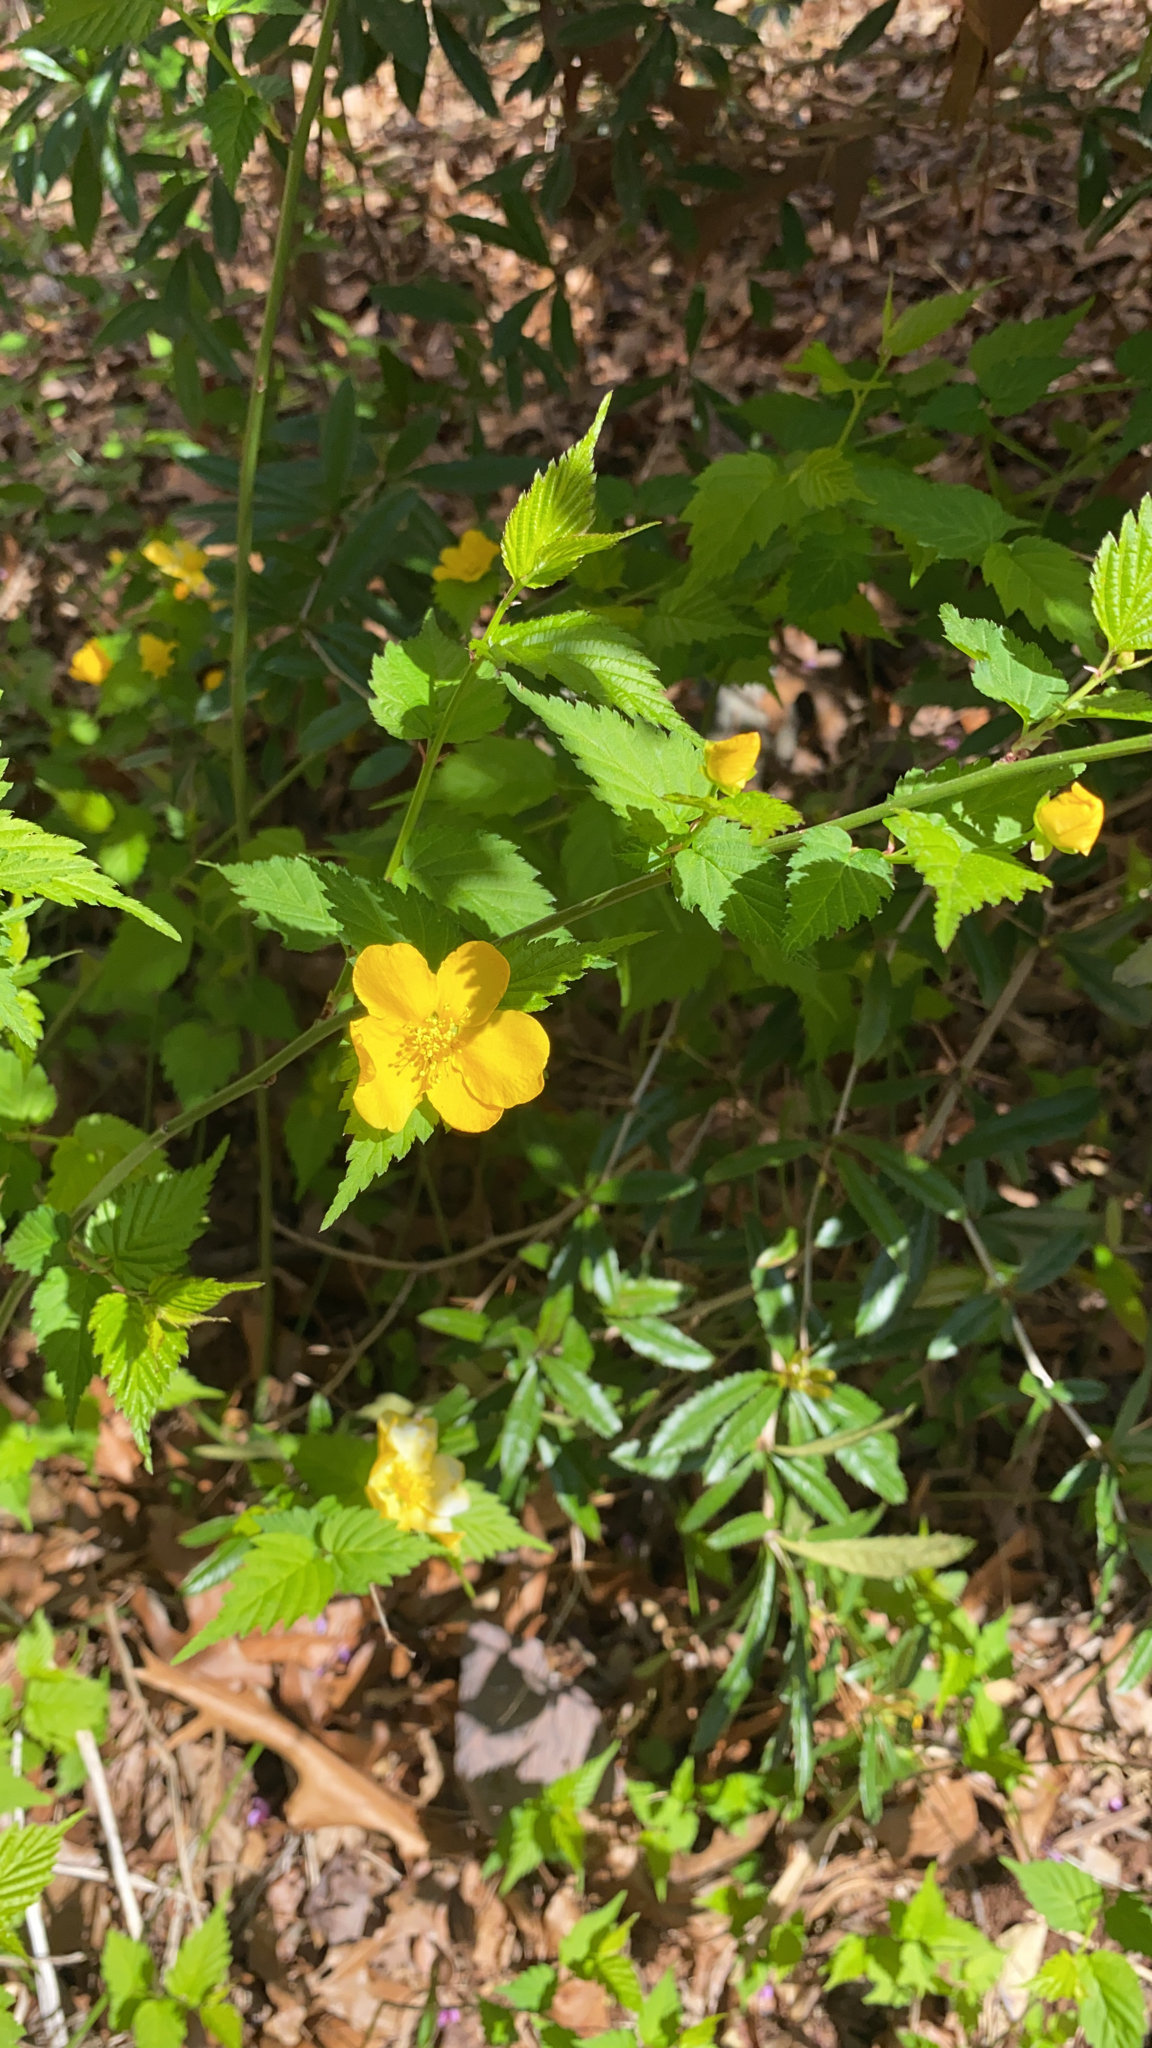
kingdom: Plantae
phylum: Tracheophyta
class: Magnoliopsida
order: Rosales
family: Rosaceae
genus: Kerria
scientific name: Kerria japonica
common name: Japanese kerria
